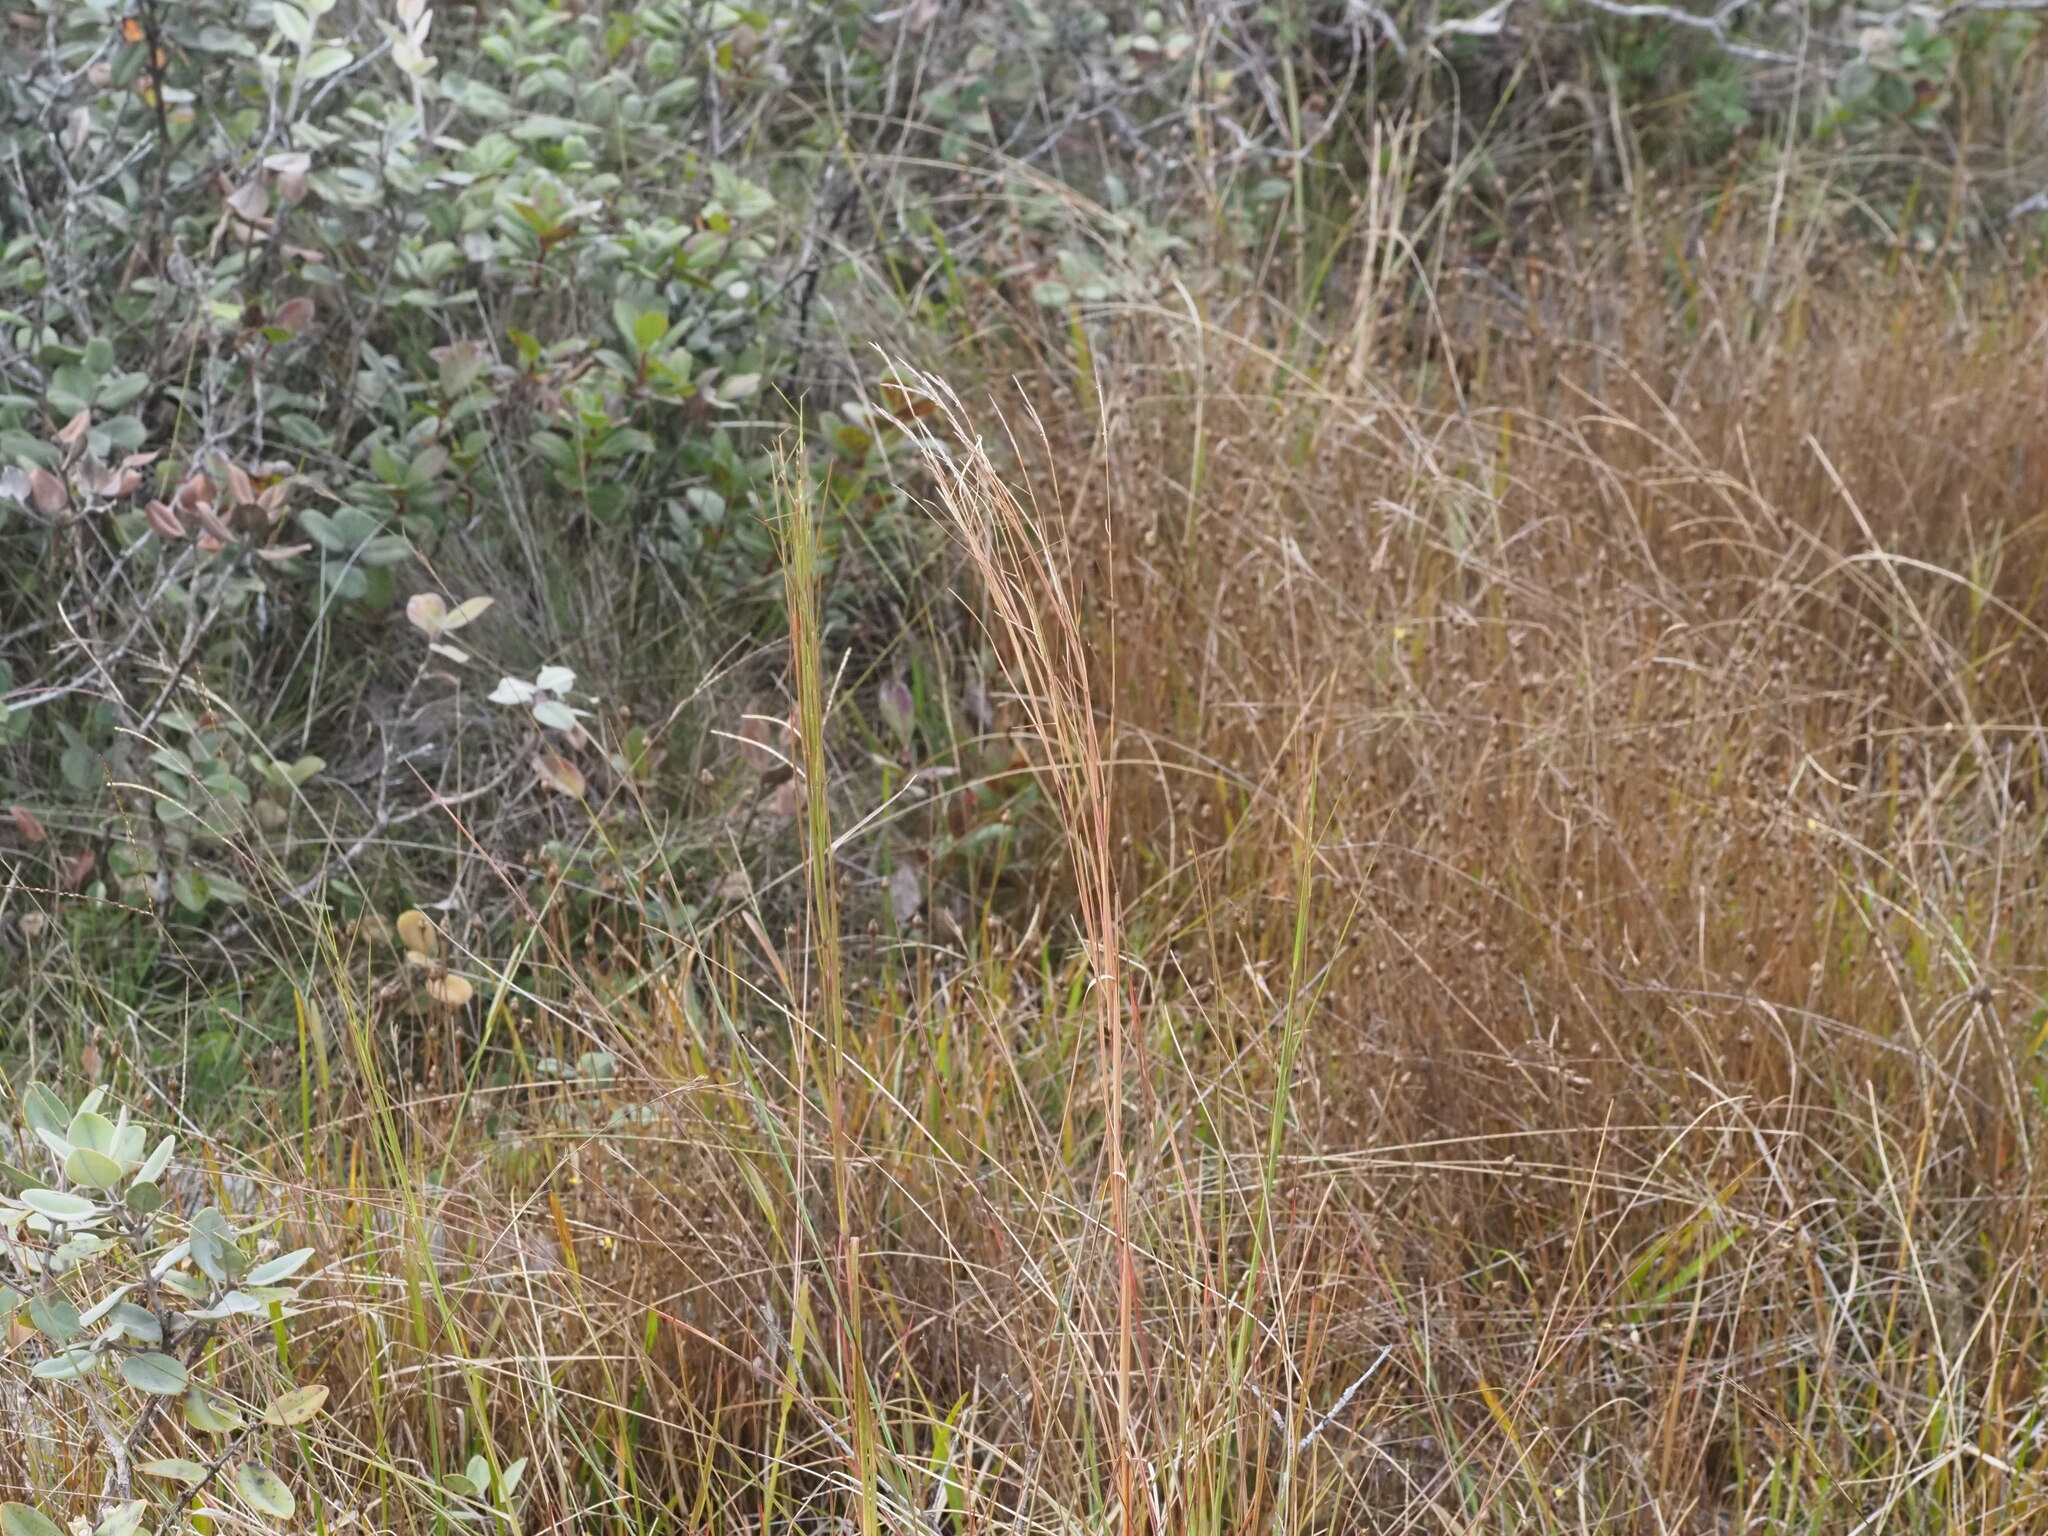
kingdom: Plantae
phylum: Tracheophyta
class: Liliopsida
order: Poales
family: Poaceae
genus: Andropogon
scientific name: Andropogon bicornis
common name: West indian foxtail grass
